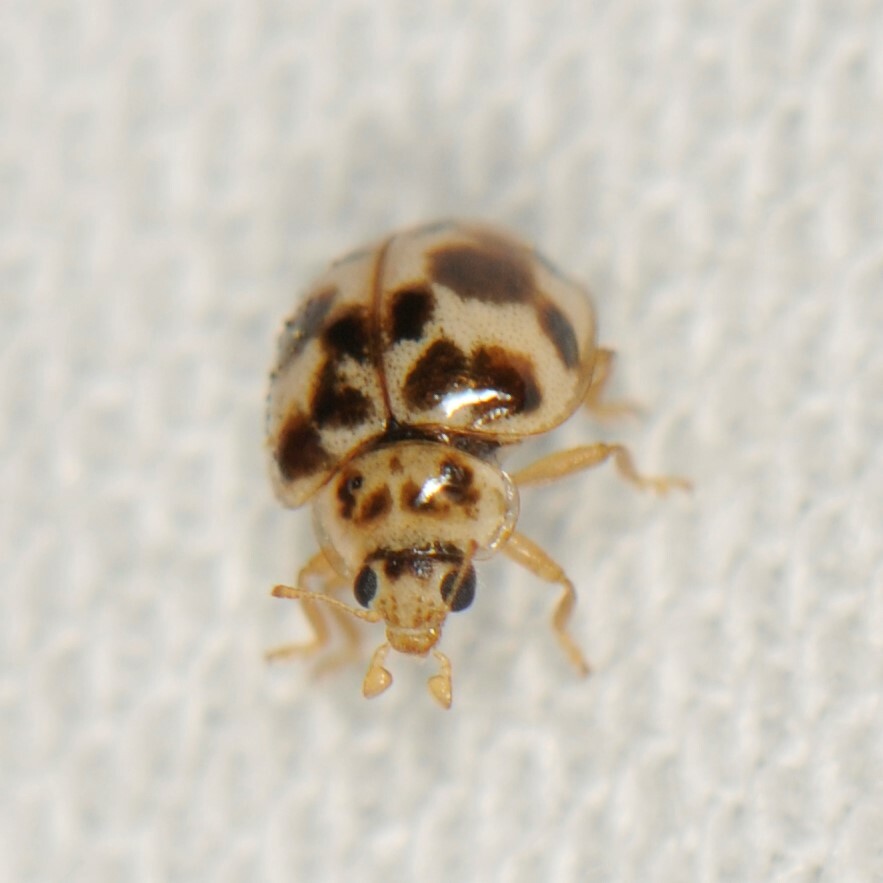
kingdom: Animalia
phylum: Arthropoda
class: Insecta
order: Coleoptera
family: Coccinellidae
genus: Psyllobora
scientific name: Psyllobora renifer
